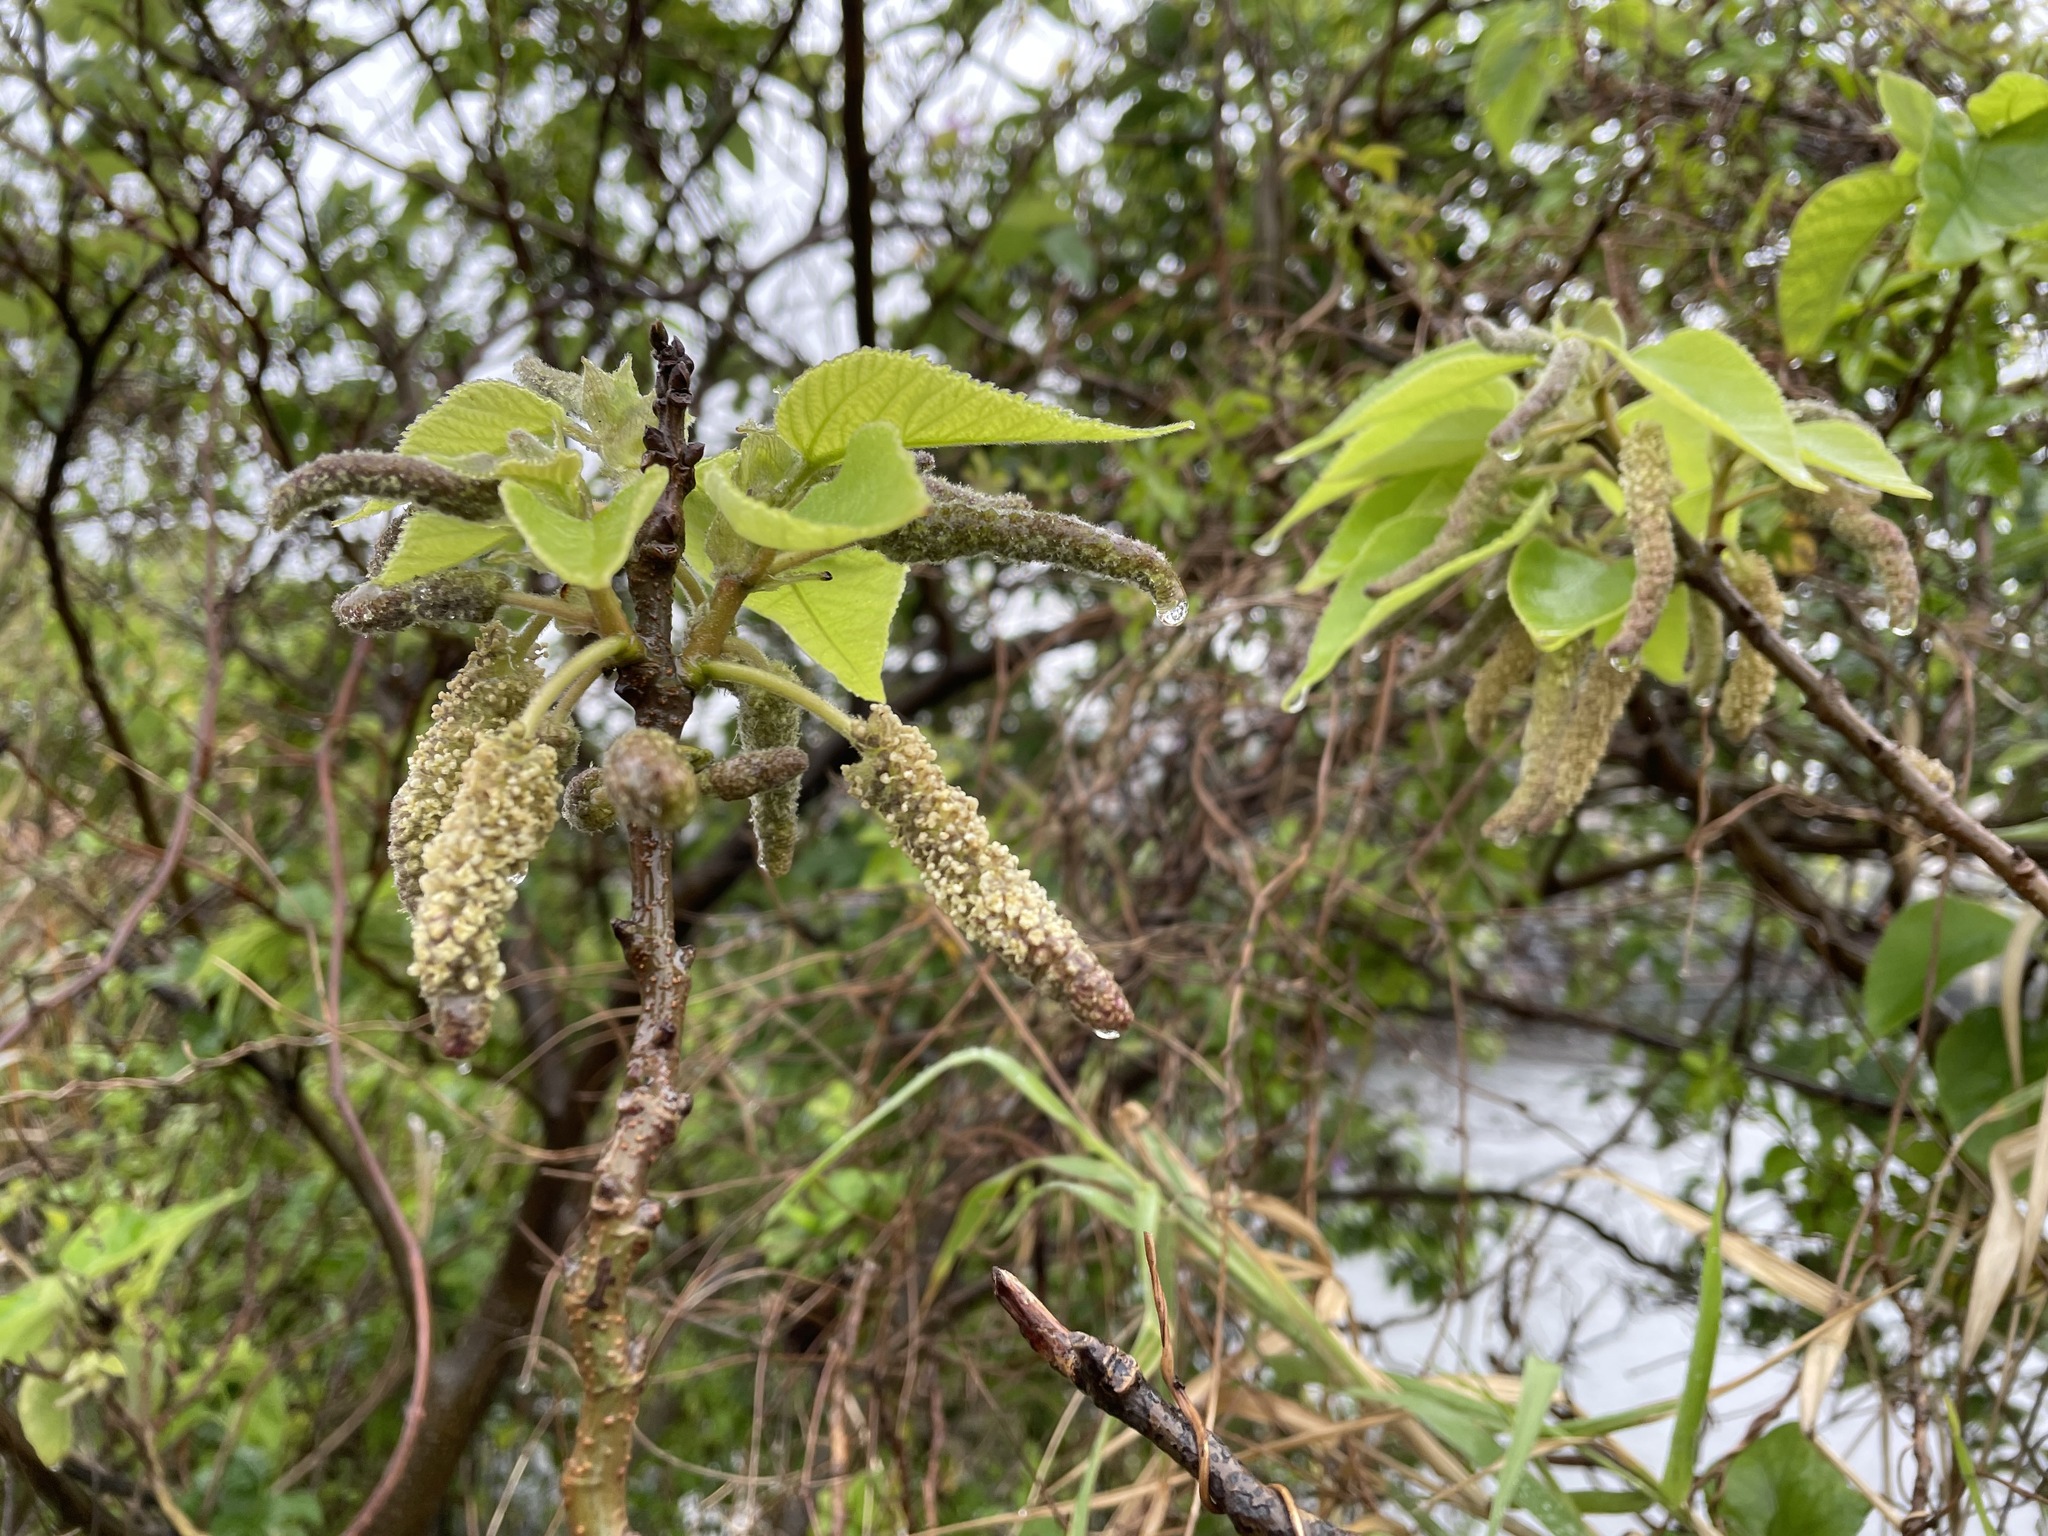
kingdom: Plantae
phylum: Tracheophyta
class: Magnoliopsida
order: Rosales
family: Moraceae
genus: Broussonetia
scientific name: Broussonetia papyrifera
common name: Paper mulberry
